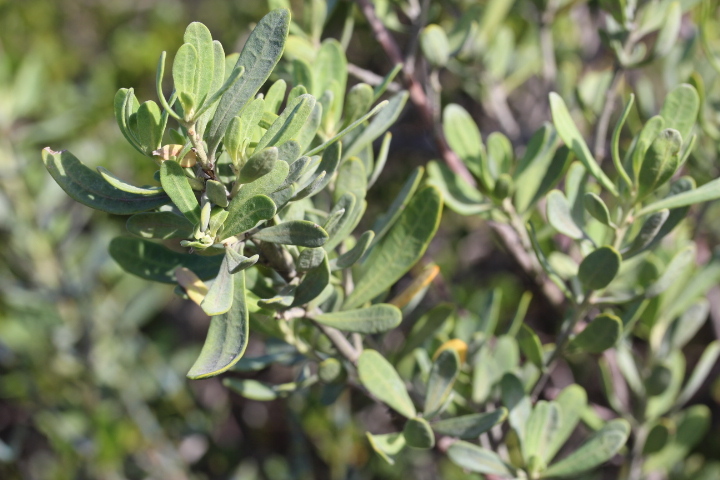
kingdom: Plantae
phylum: Tracheophyta
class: Magnoliopsida
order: Malpighiales
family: Peraceae
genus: Clutia
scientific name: Clutia daphnoides
